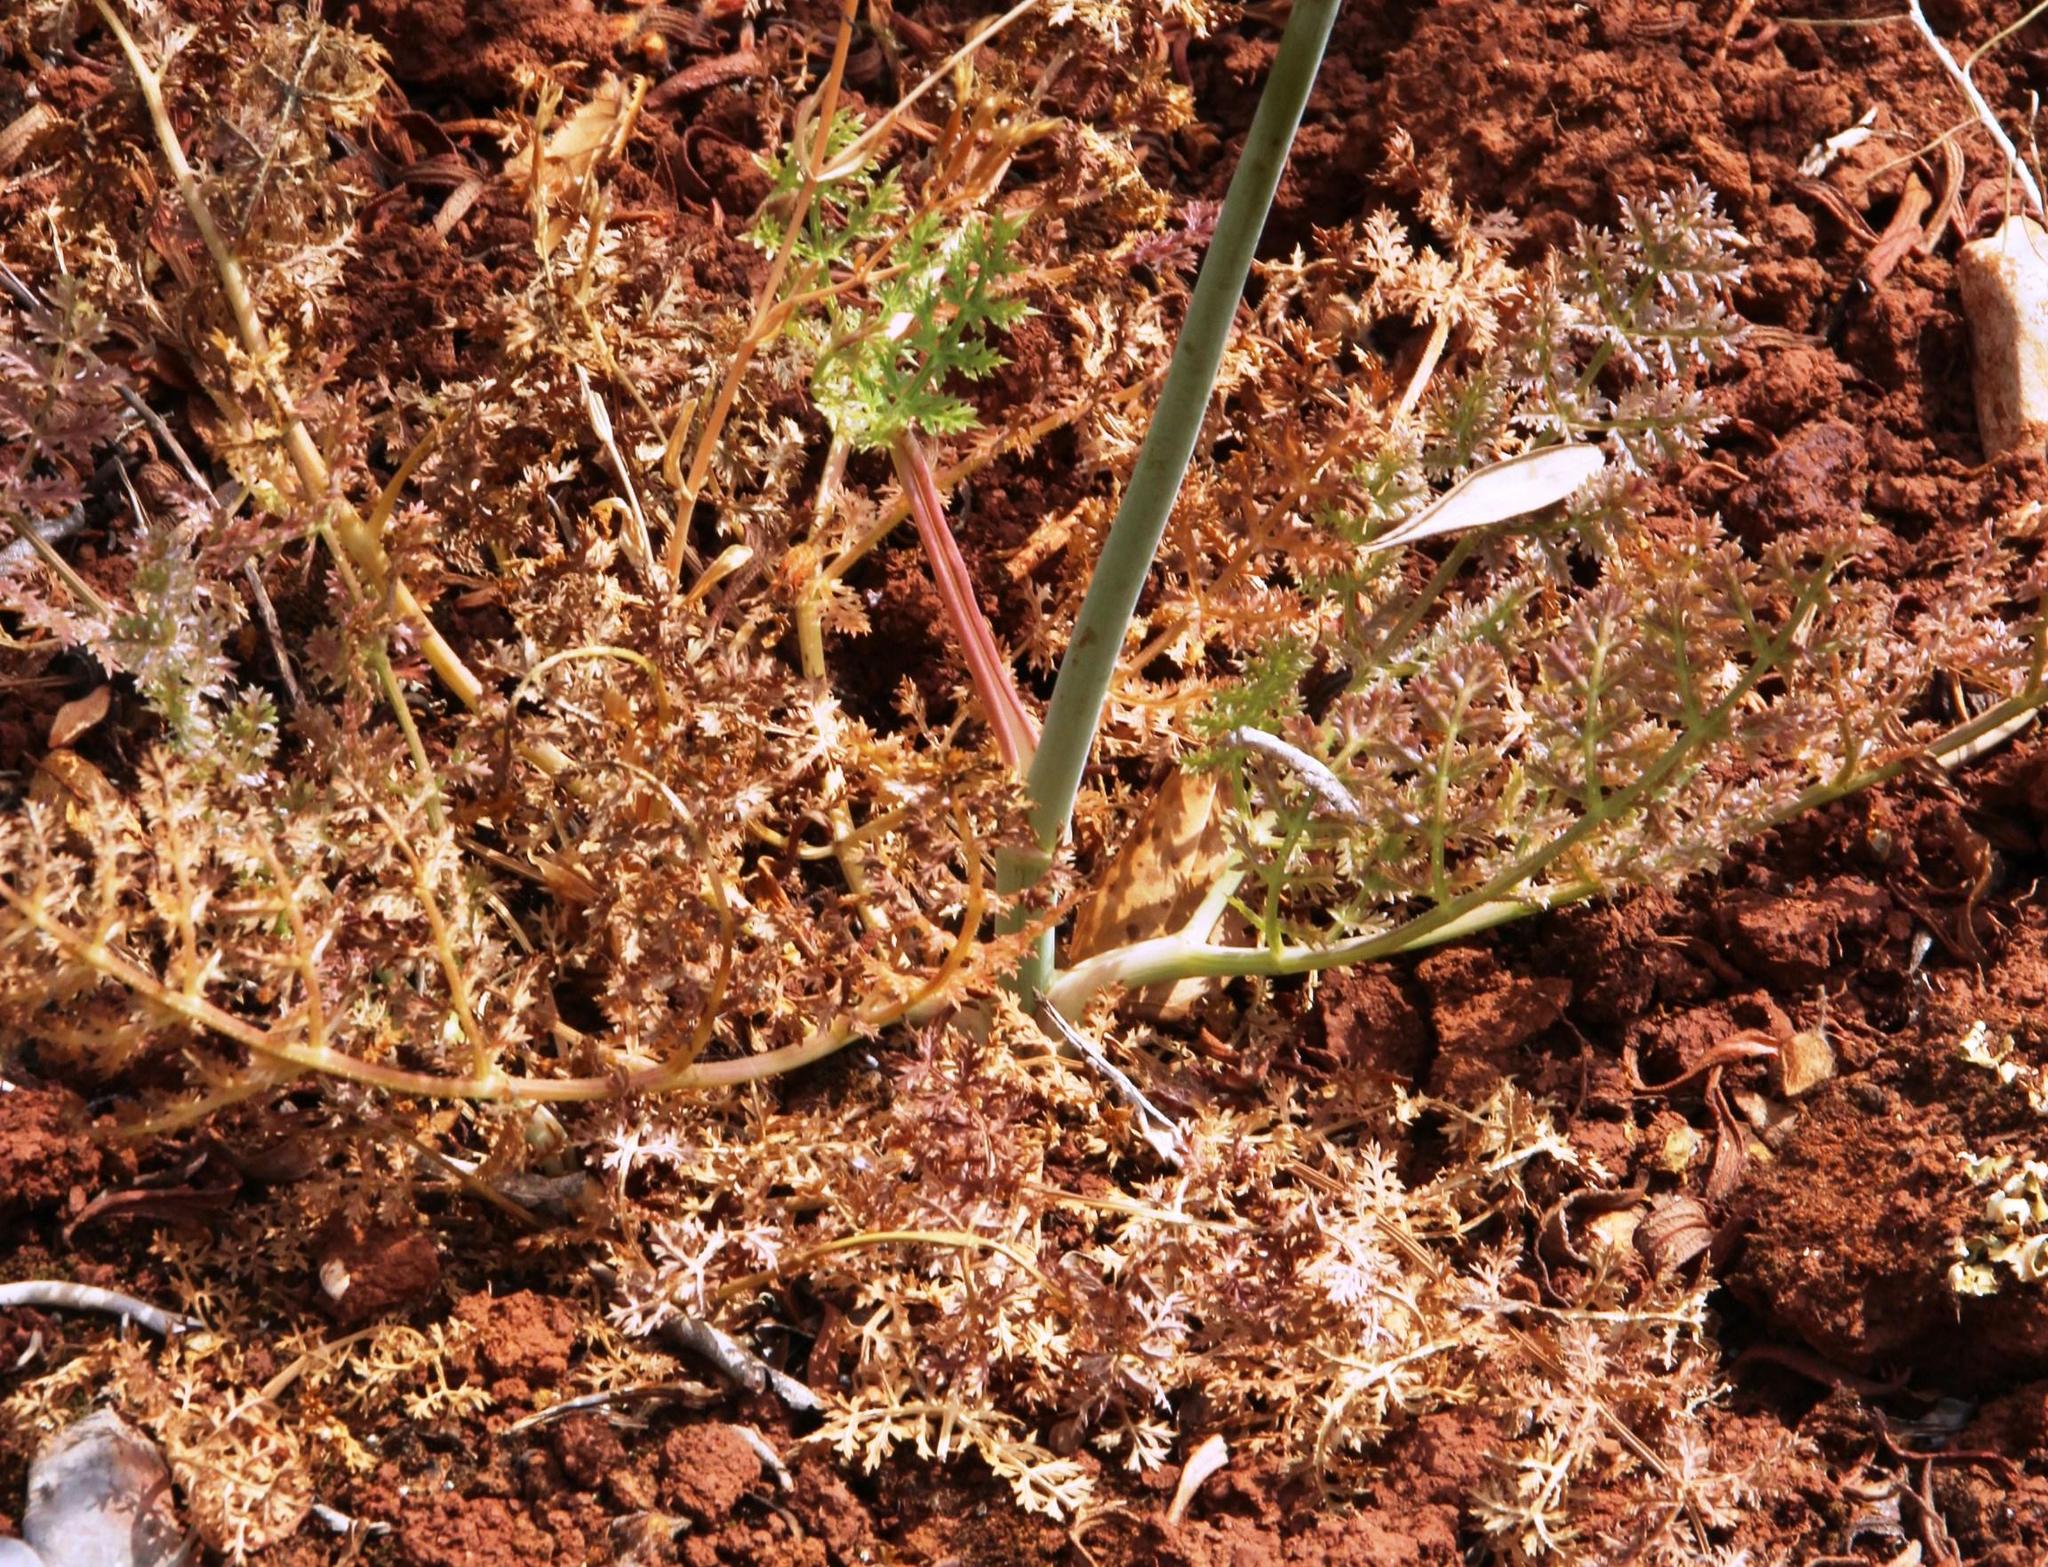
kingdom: Plantae
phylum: Tracheophyta
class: Magnoliopsida
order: Apiales
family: Apiaceae
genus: Thapsia
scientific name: Thapsia gummifera
